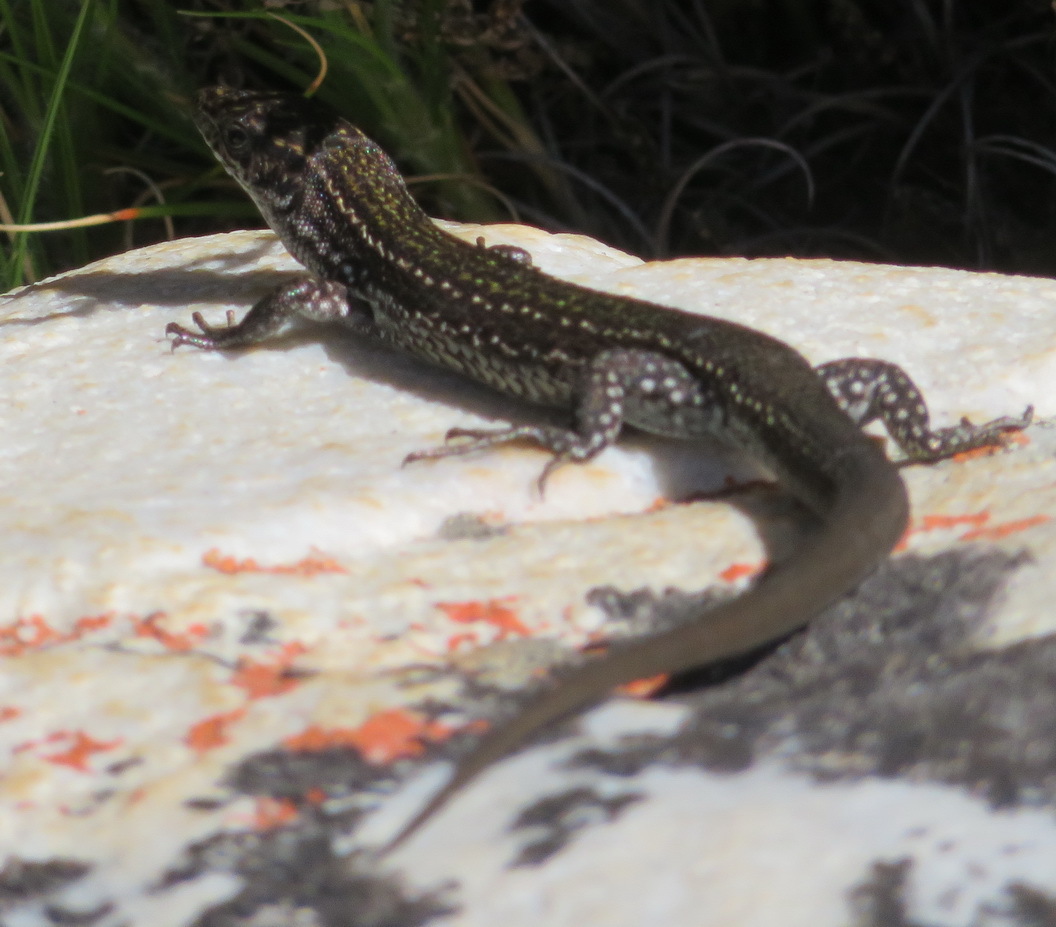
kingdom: Animalia
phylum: Chordata
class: Squamata
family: Lacertidae
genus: Tropidosaura
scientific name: Tropidosaura gularis
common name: Cape mountain lizard
